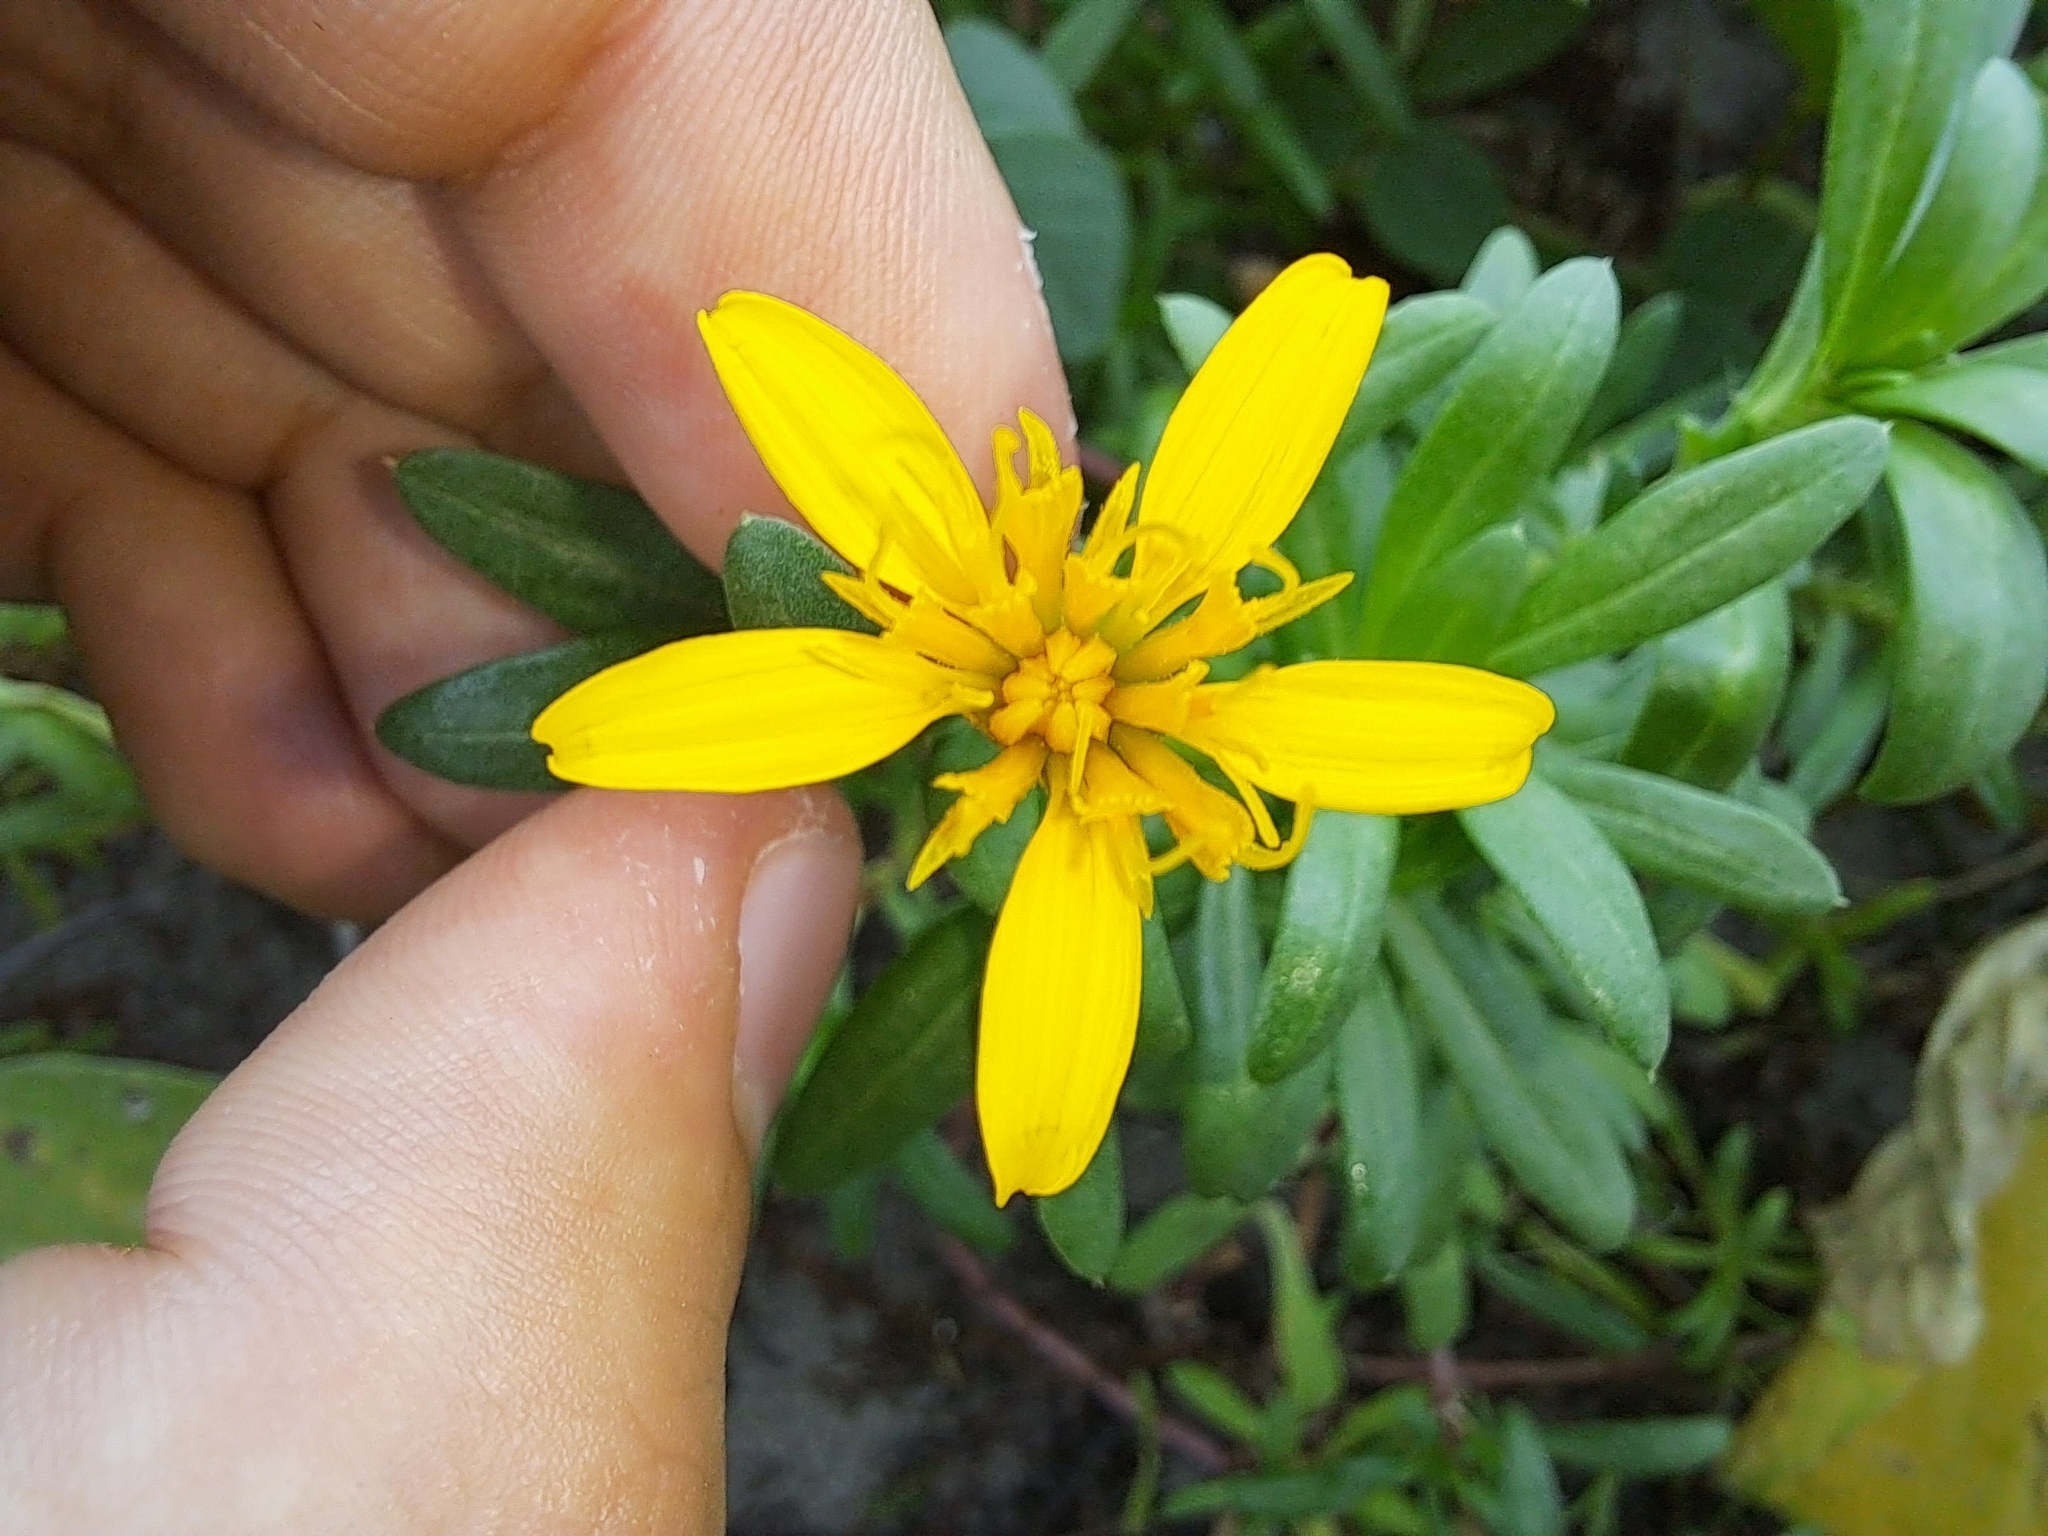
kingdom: Plantae
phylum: Tracheophyta
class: Magnoliopsida
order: Asterales
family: Asteraceae
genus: Pectis
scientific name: Pectis multiflosculosa
